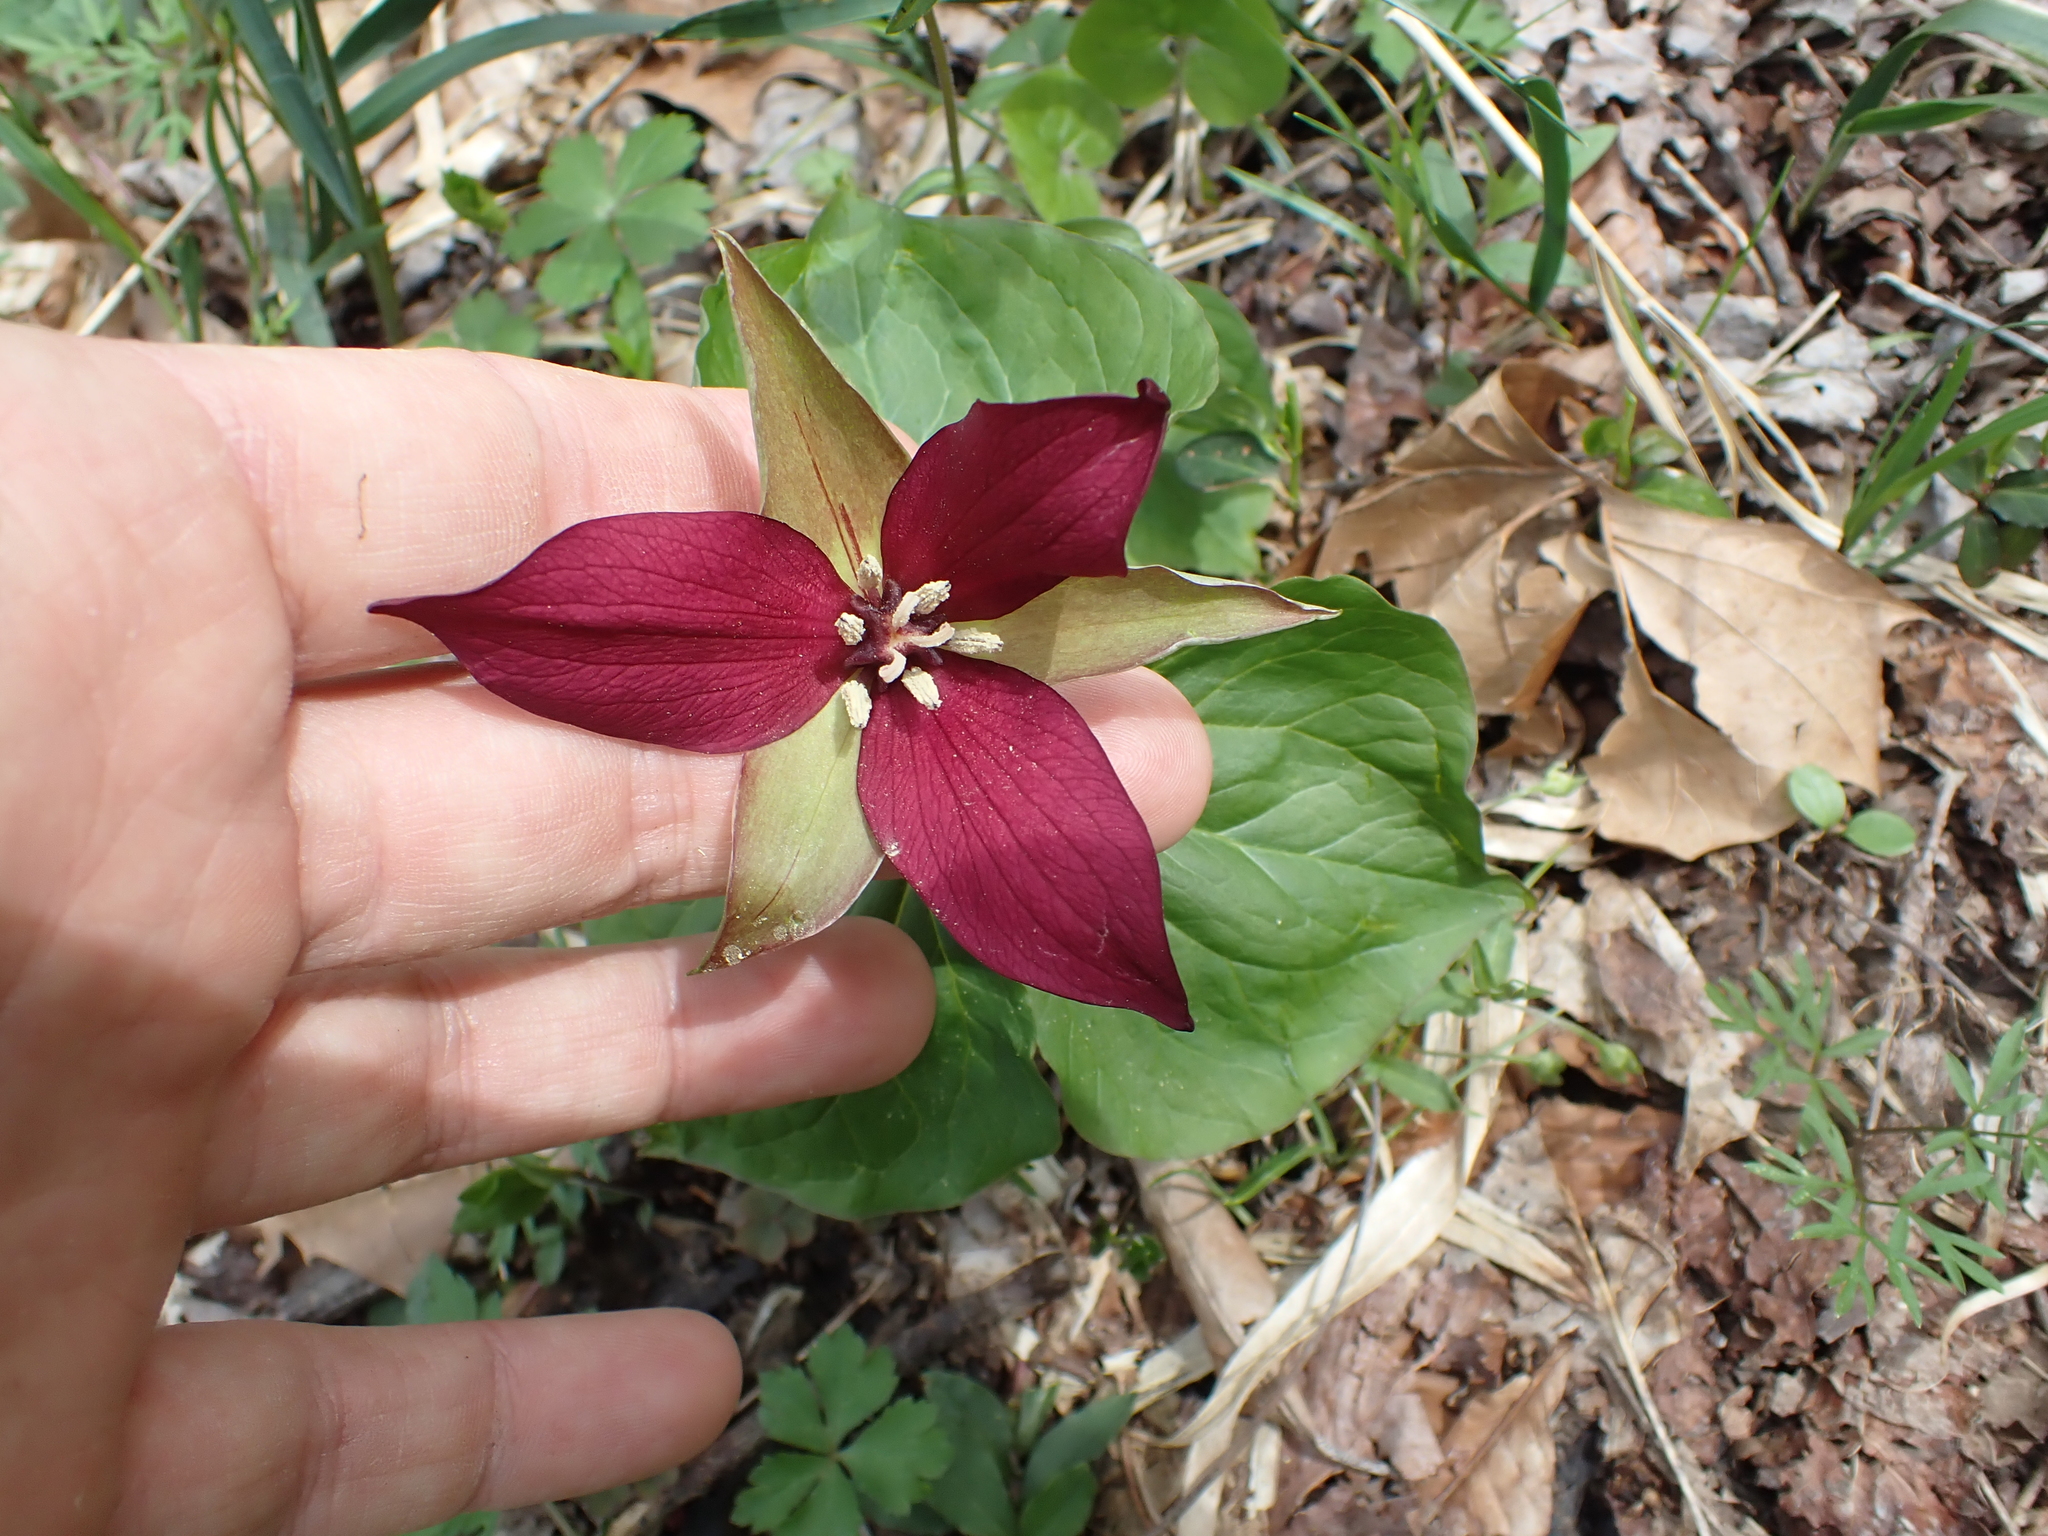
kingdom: Plantae
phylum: Tracheophyta
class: Liliopsida
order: Liliales
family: Melanthiaceae
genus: Trillium
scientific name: Trillium erectum
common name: Purple trillium
